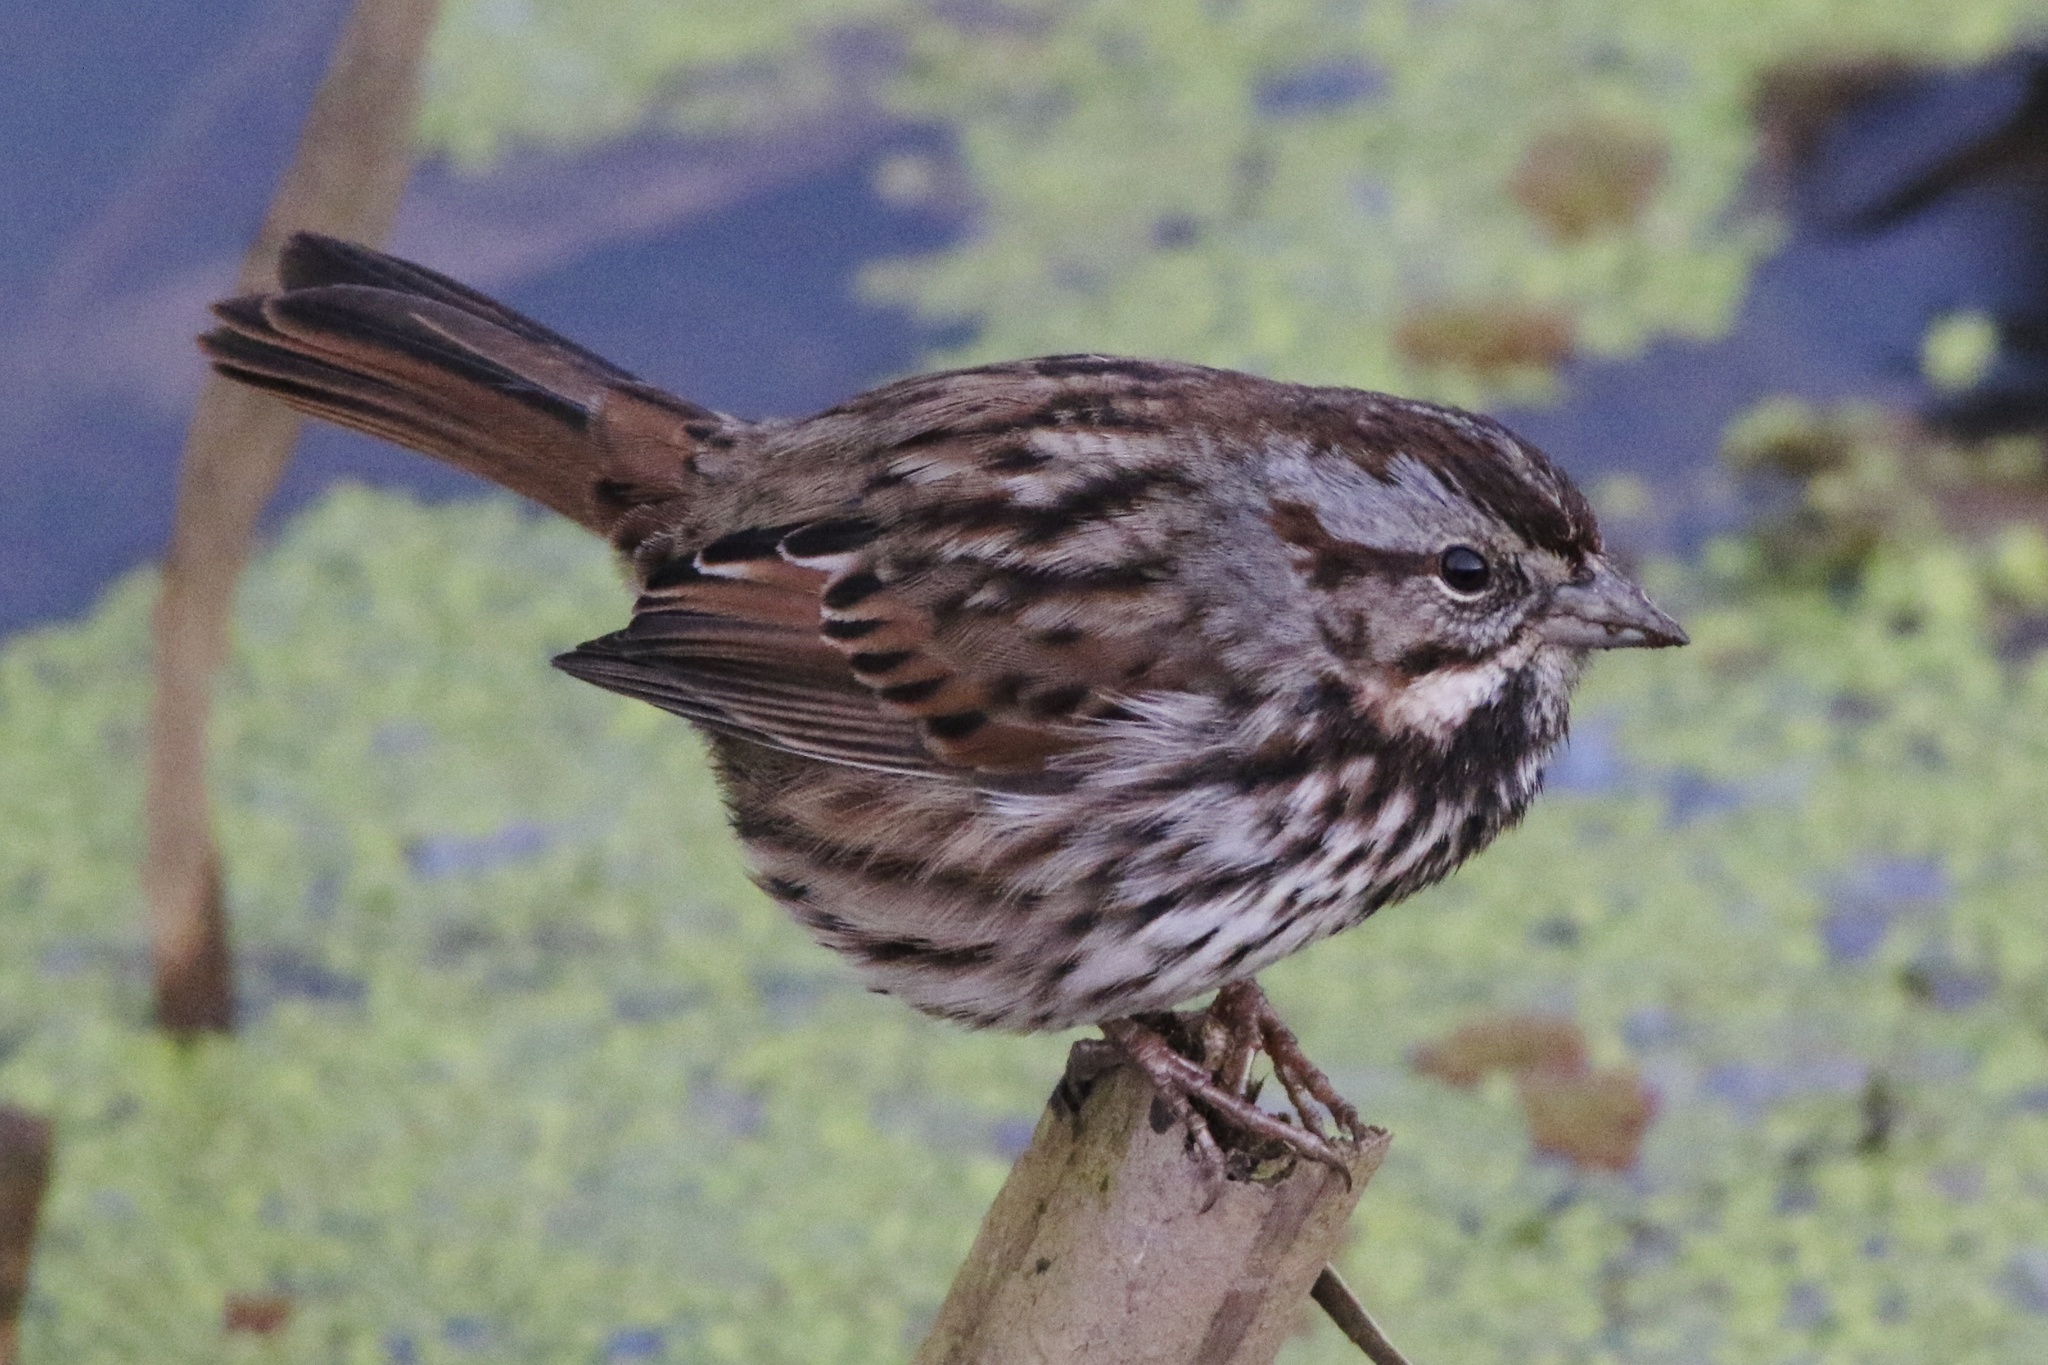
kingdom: Animalia
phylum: Chordata
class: Aves
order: Passeriformes
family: Passerellidae
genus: Melospiza
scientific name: Melospiza melodia
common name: Song sparrow
